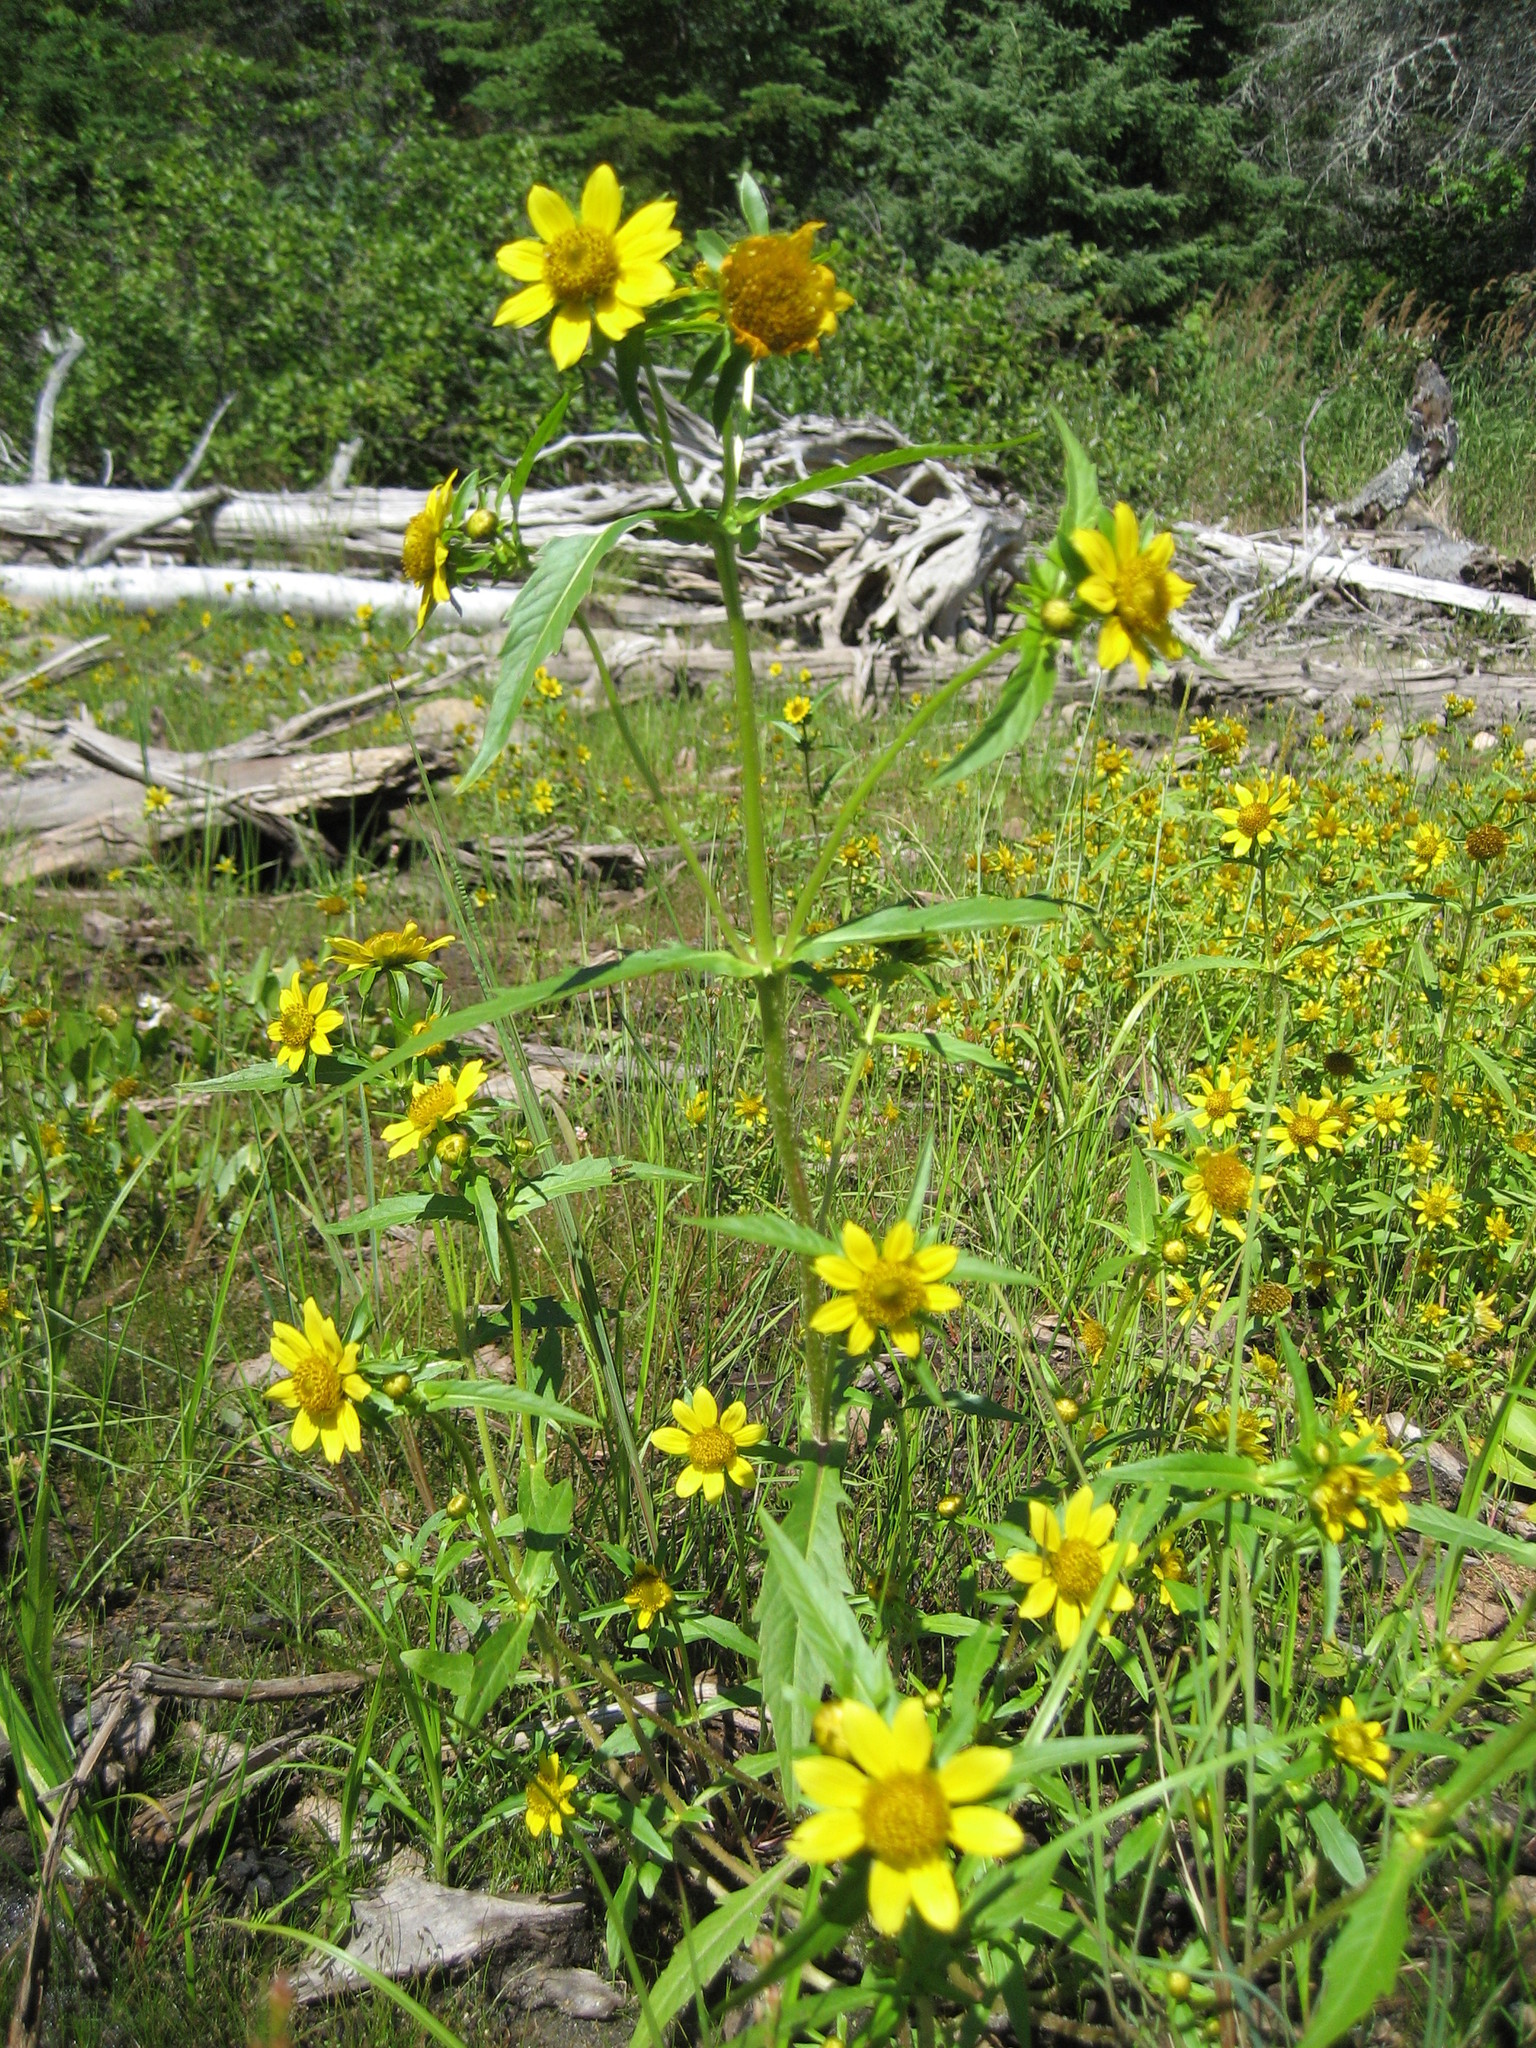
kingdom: Plantae
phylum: Tracheophyta
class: Magnoliopsida
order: Asterales
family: Asteraceae
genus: Bidens
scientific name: Bidens cernua
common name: Nodding bur-marigold
